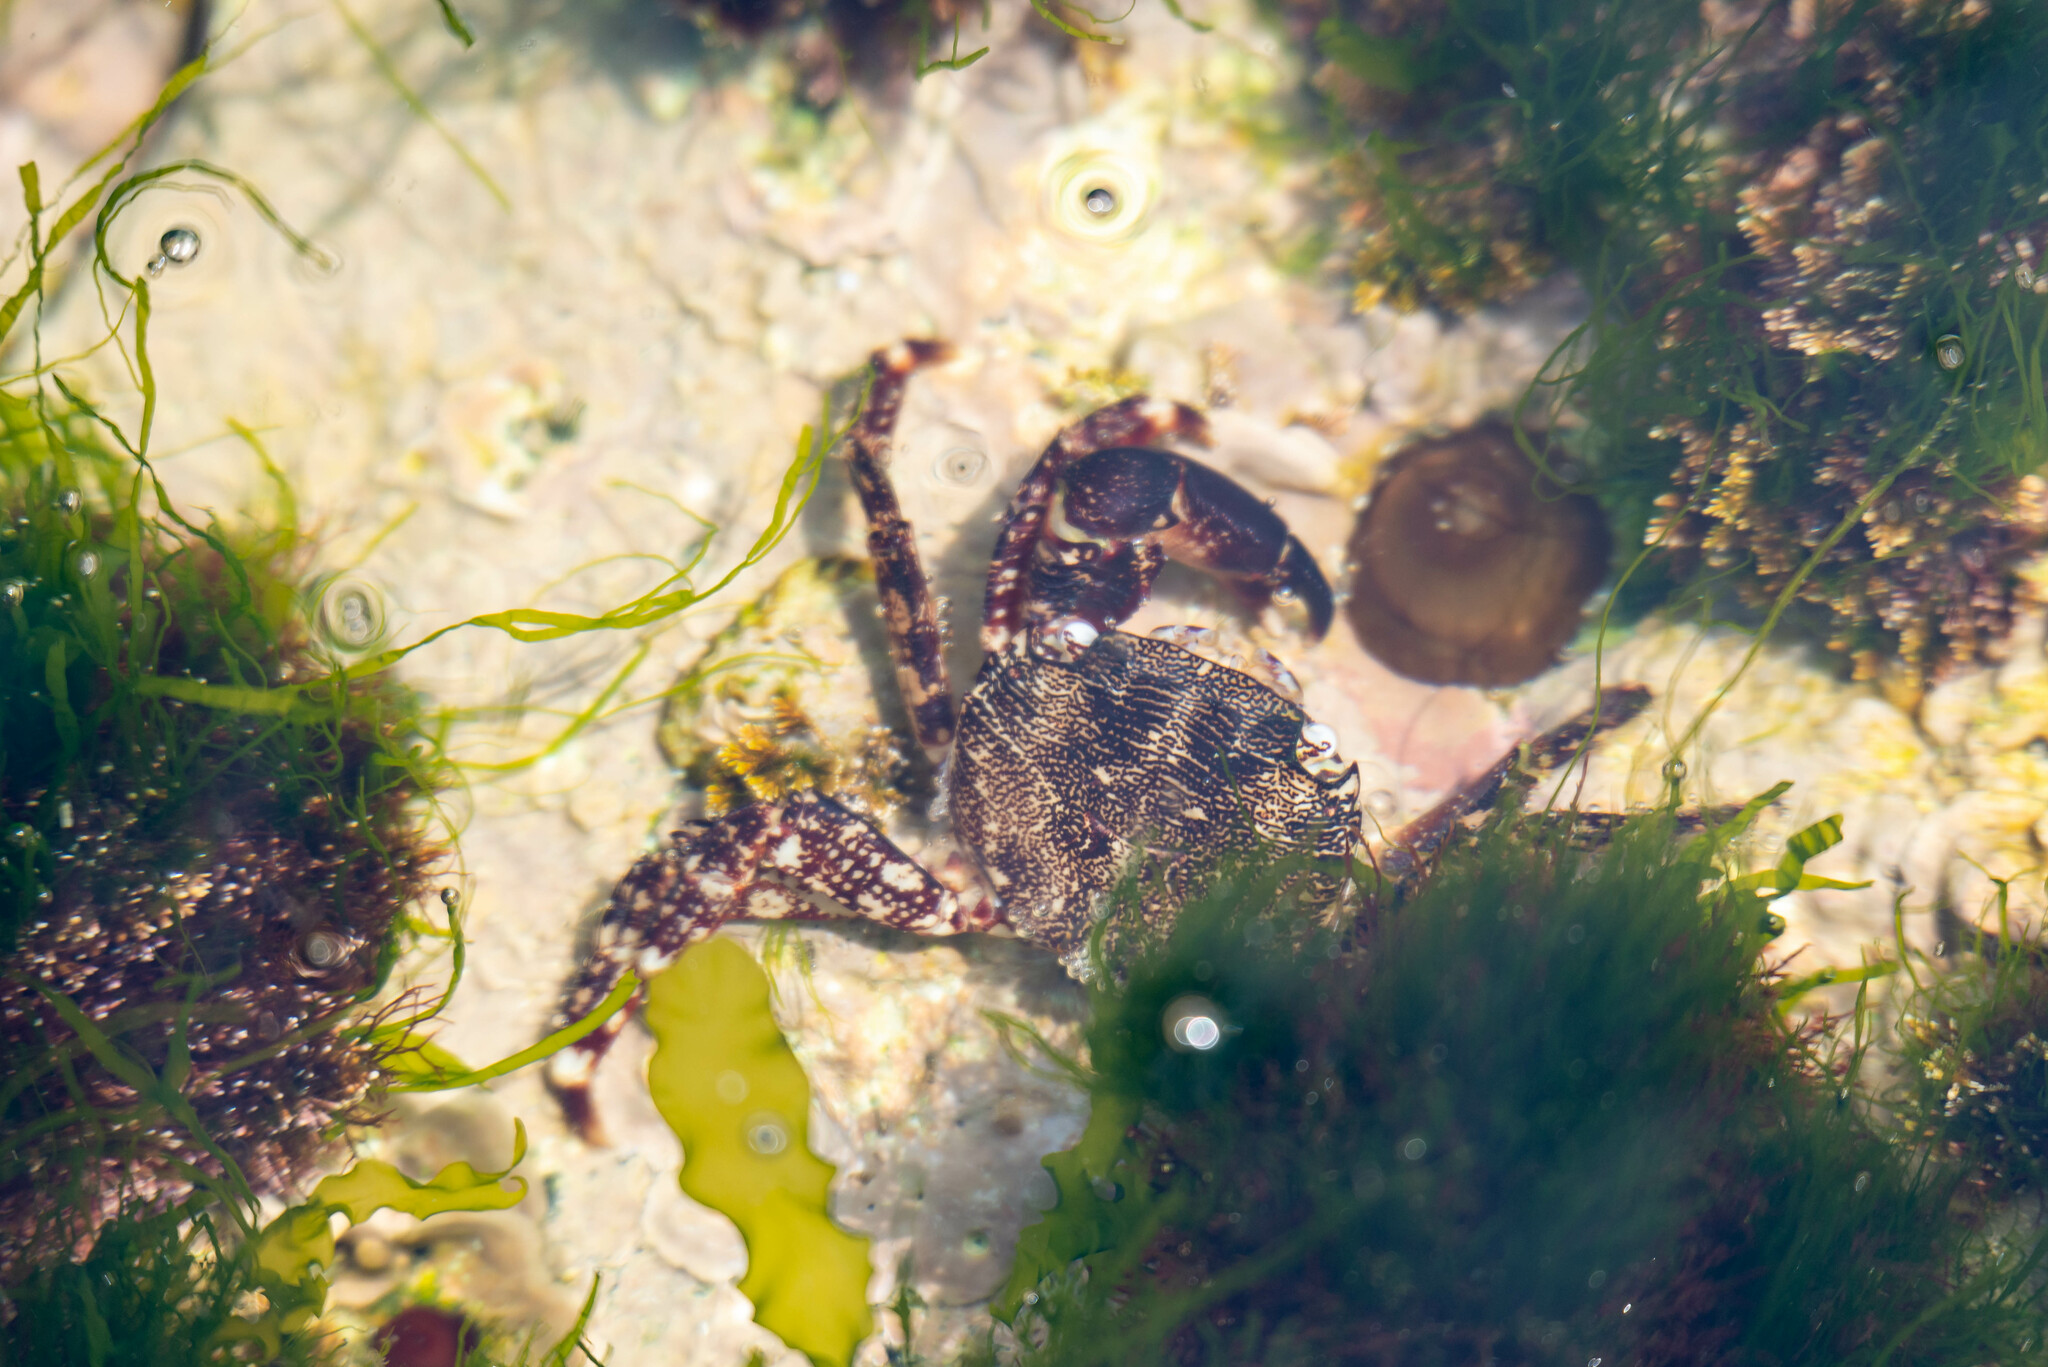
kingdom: Animalia
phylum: Arthropoda
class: Malacostraca
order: Decapoda
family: Grapsidae
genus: Pachygrapsus
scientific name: Pachygrapsus marmoratus
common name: Marbled rock crab
